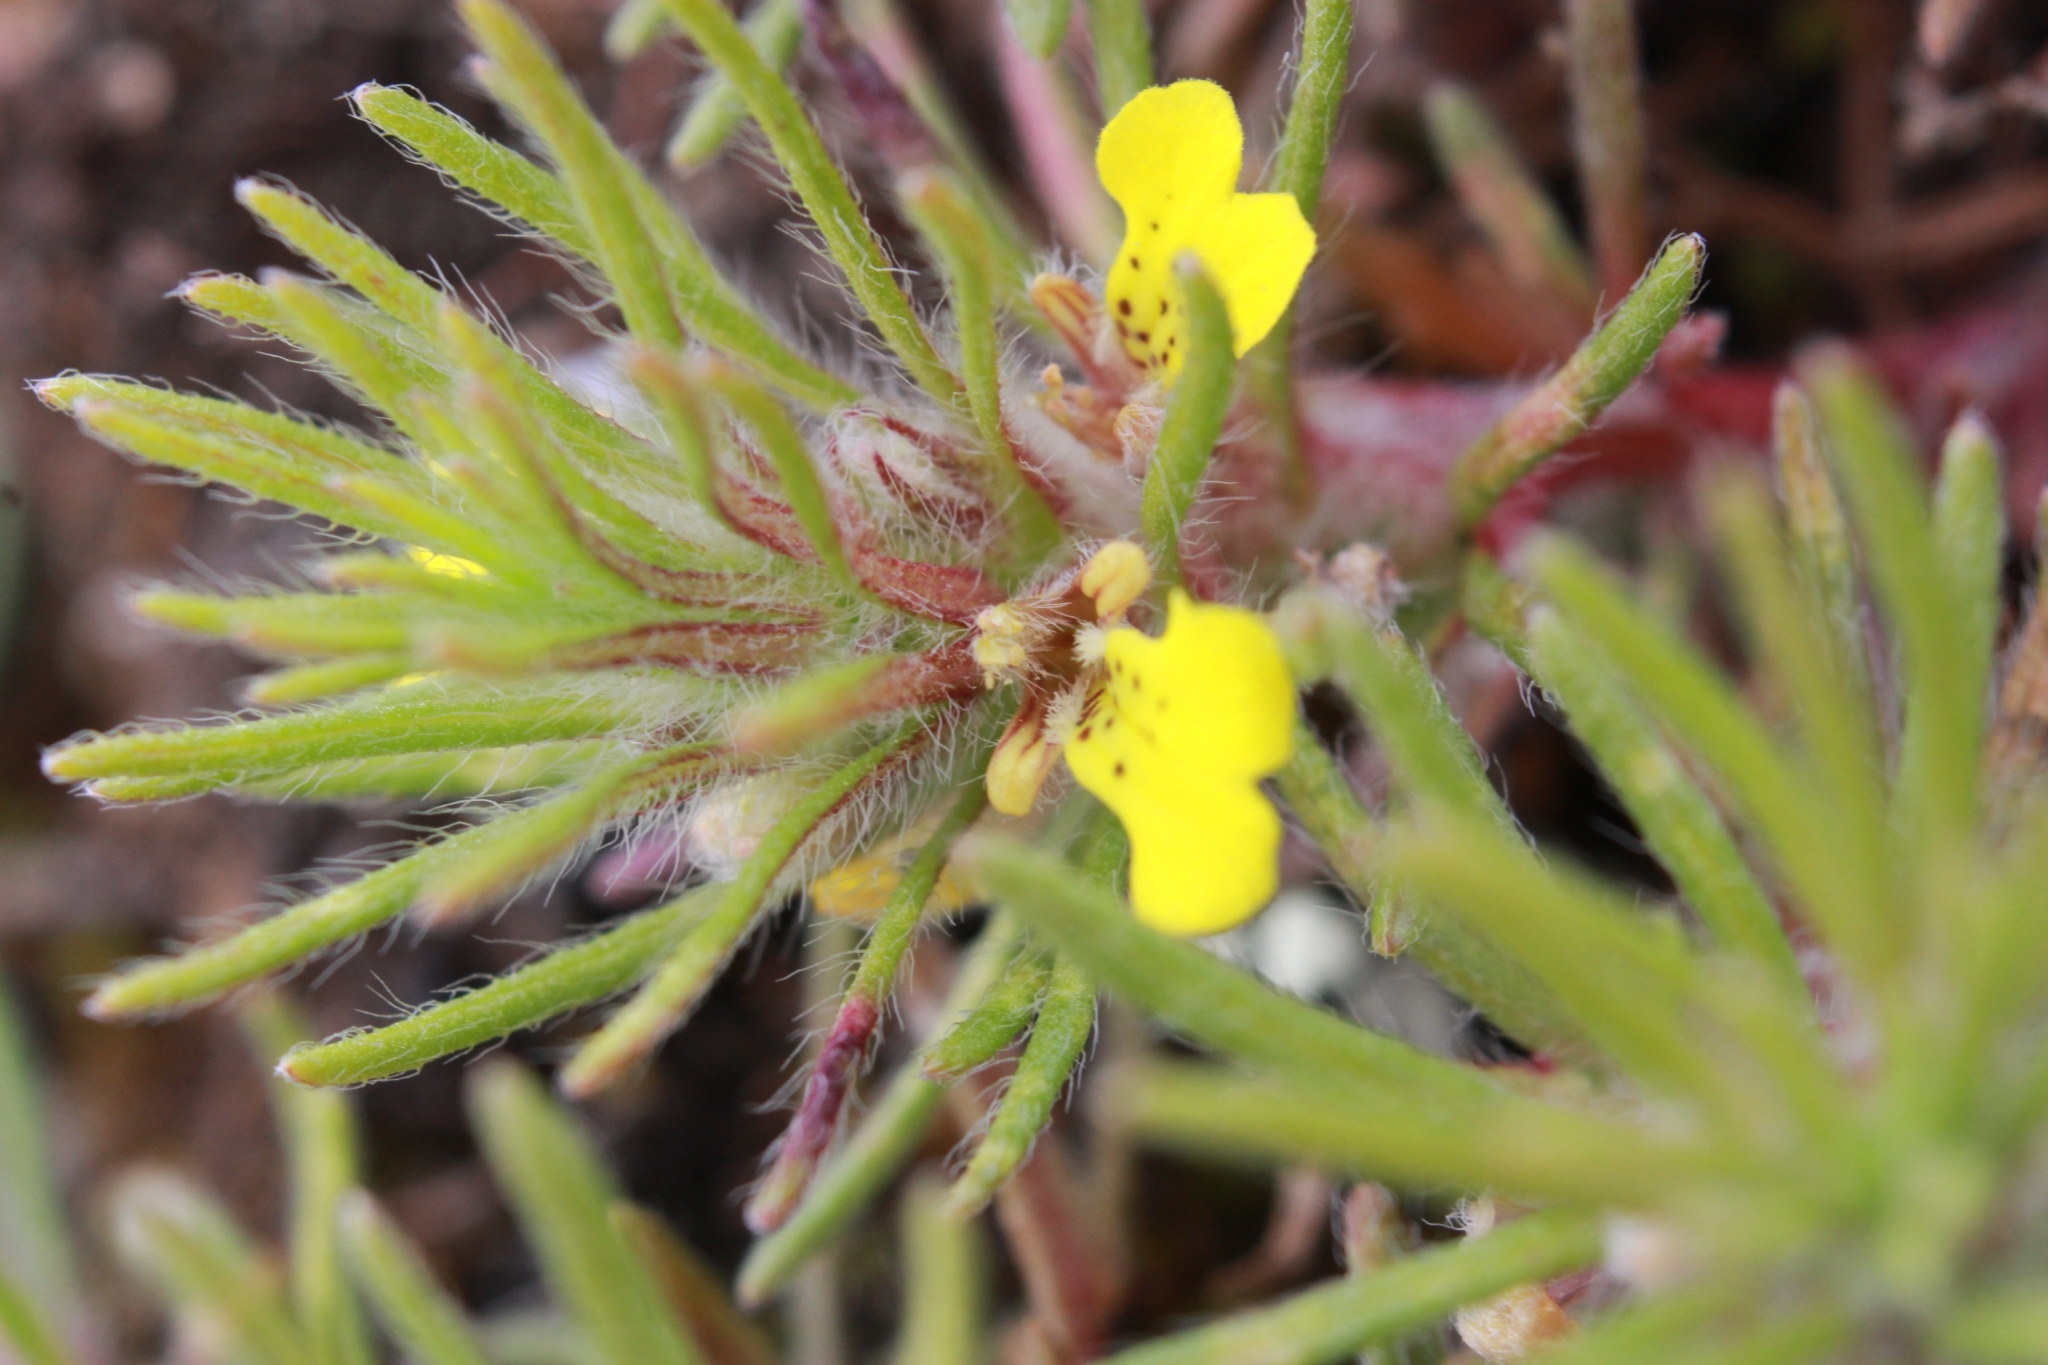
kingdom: Plantae
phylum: Tracheophyta
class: Magnoliopsida
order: Lamiales
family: Lamiaceae
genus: Ajuga
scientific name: Ajuga chamaepitys
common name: Ground-pine
